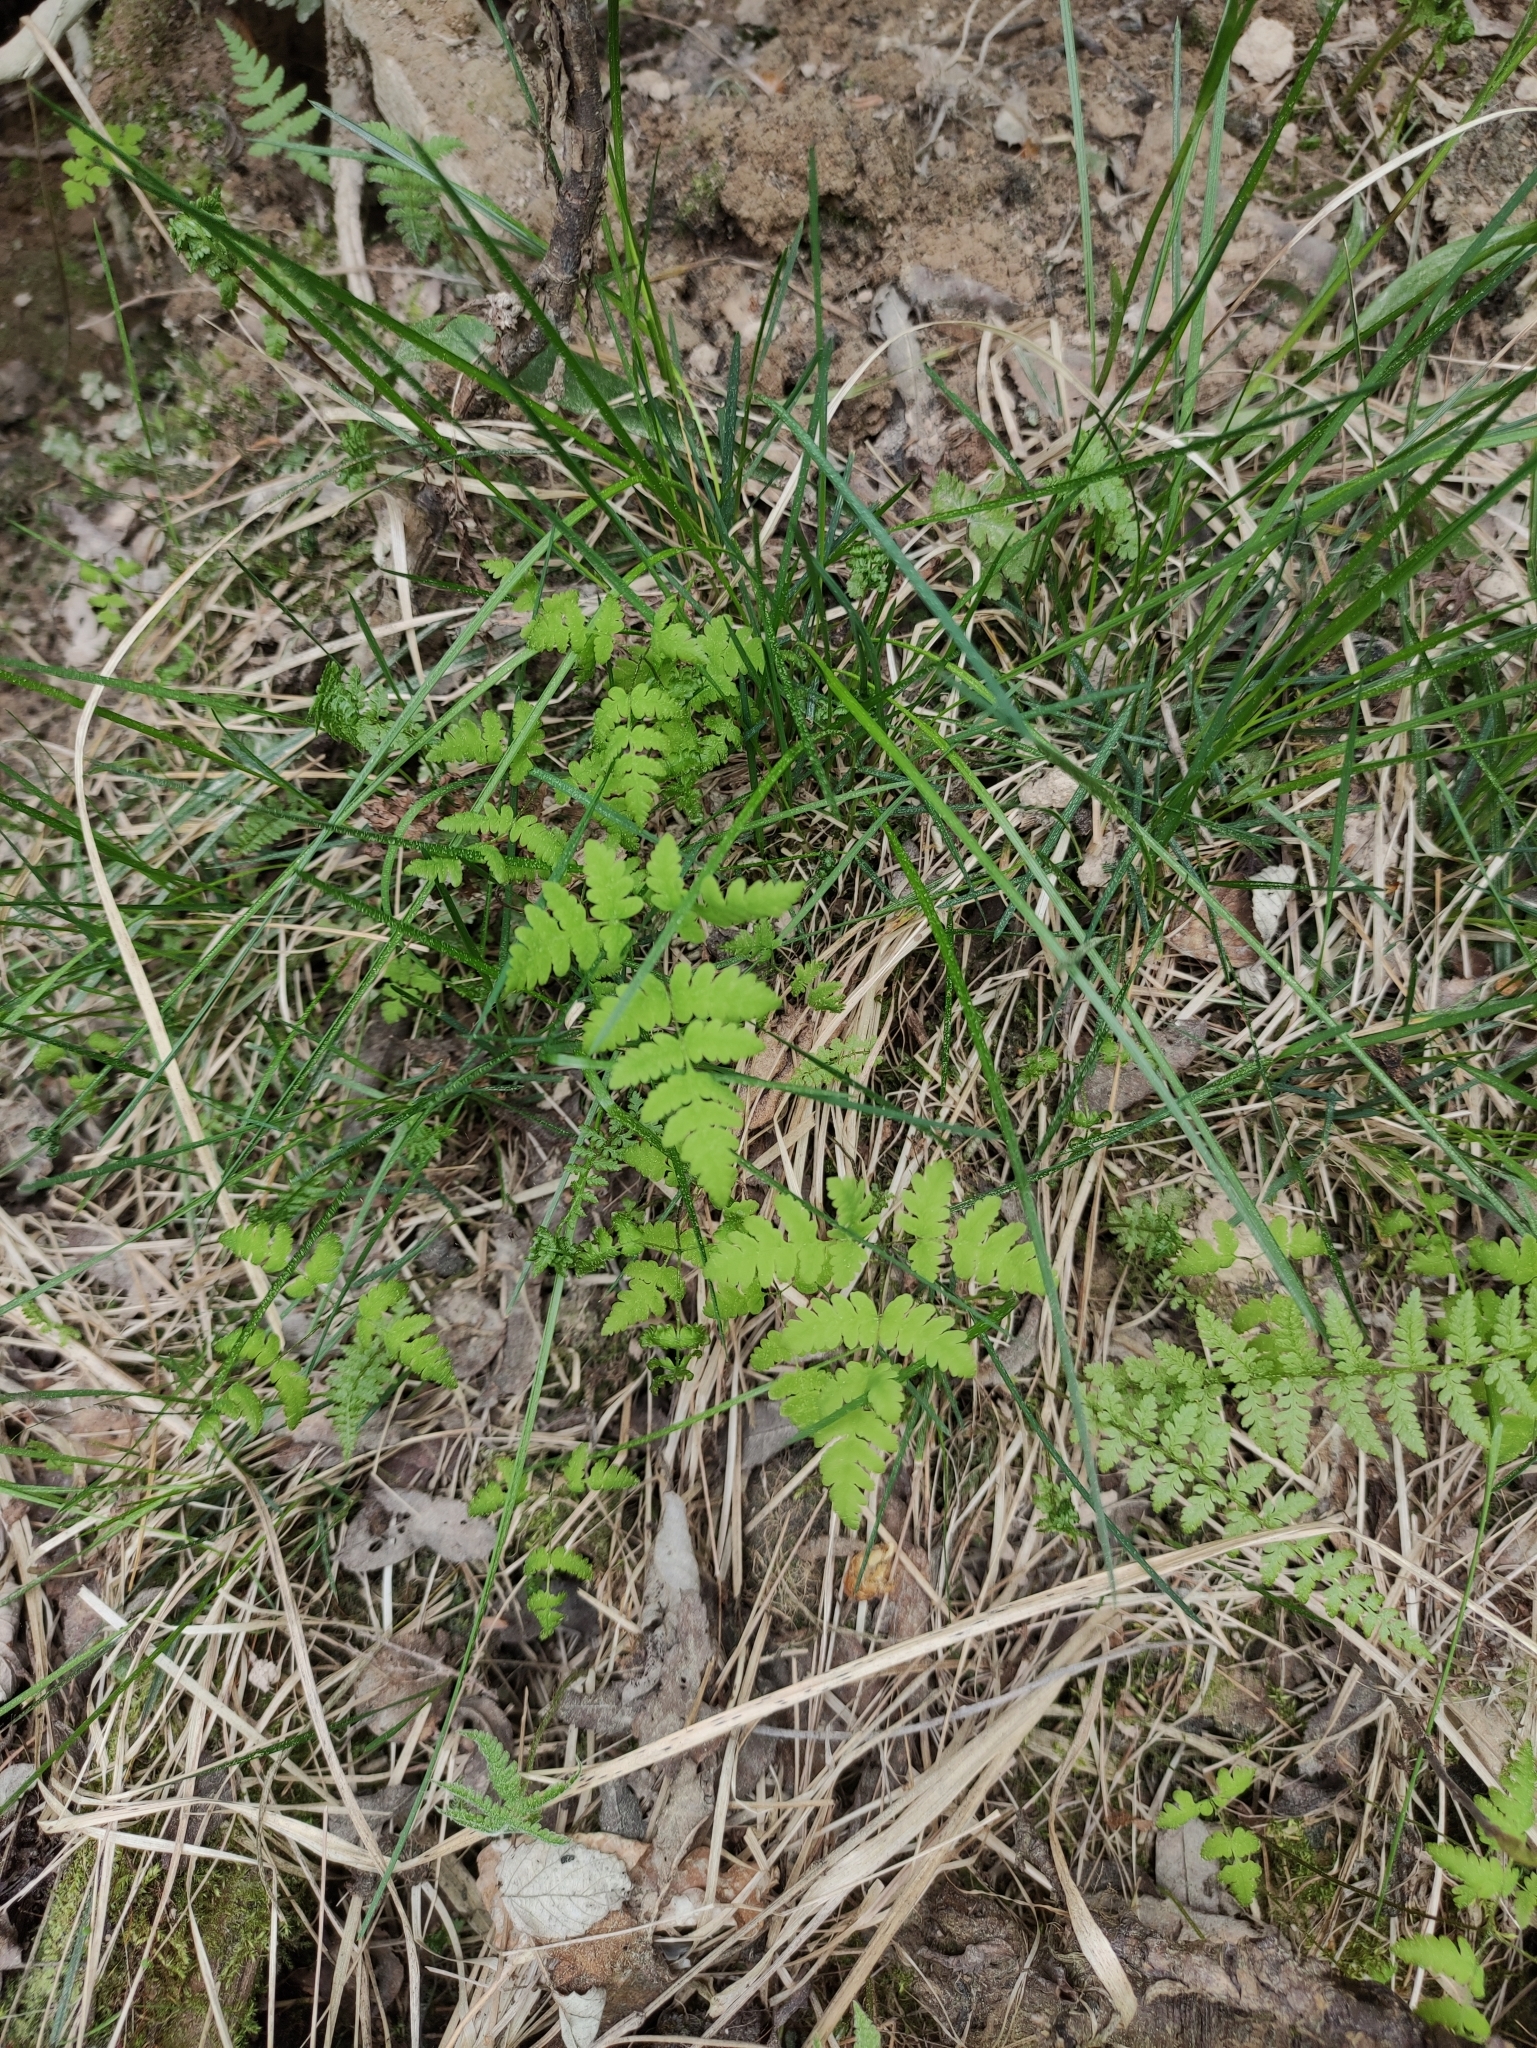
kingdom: Plantae
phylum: Tracheophyta
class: Polypodiopsida
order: Polypodiales
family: Cystopteridaceae
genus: Gymnocarpium
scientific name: Gymnocarpium dryopteris
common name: Oak fern
